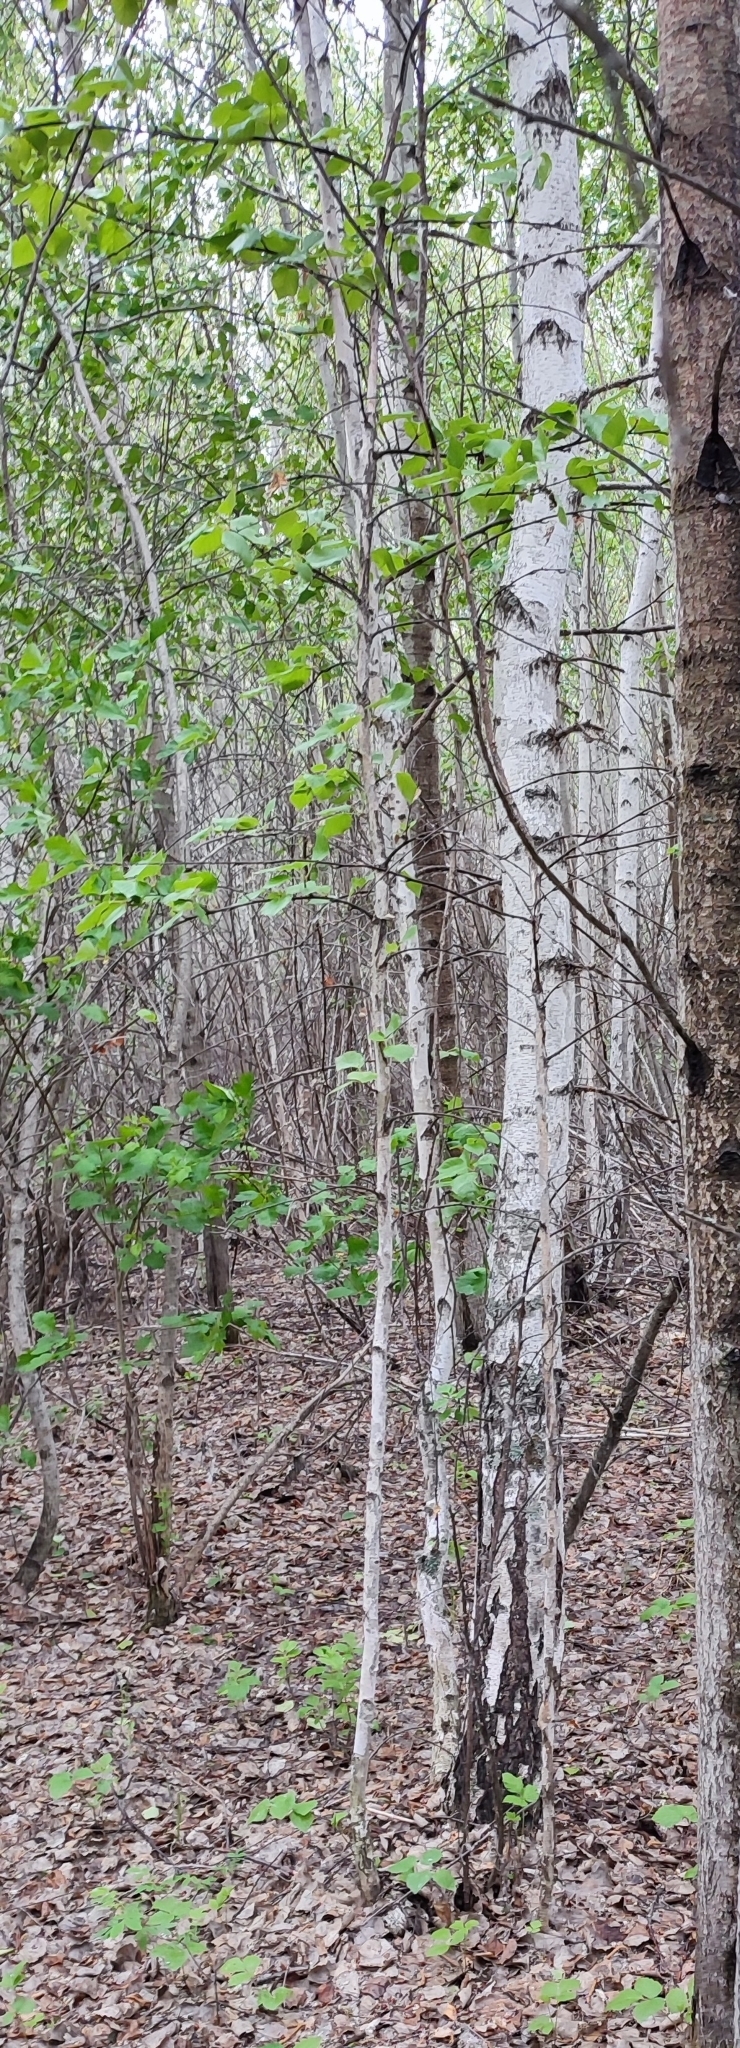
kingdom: Plantae
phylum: Tracheophyta
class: Magnoliopsida
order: Fagales
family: Betulaceae
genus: Betula
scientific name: Betula pubescens
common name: Downy birch
